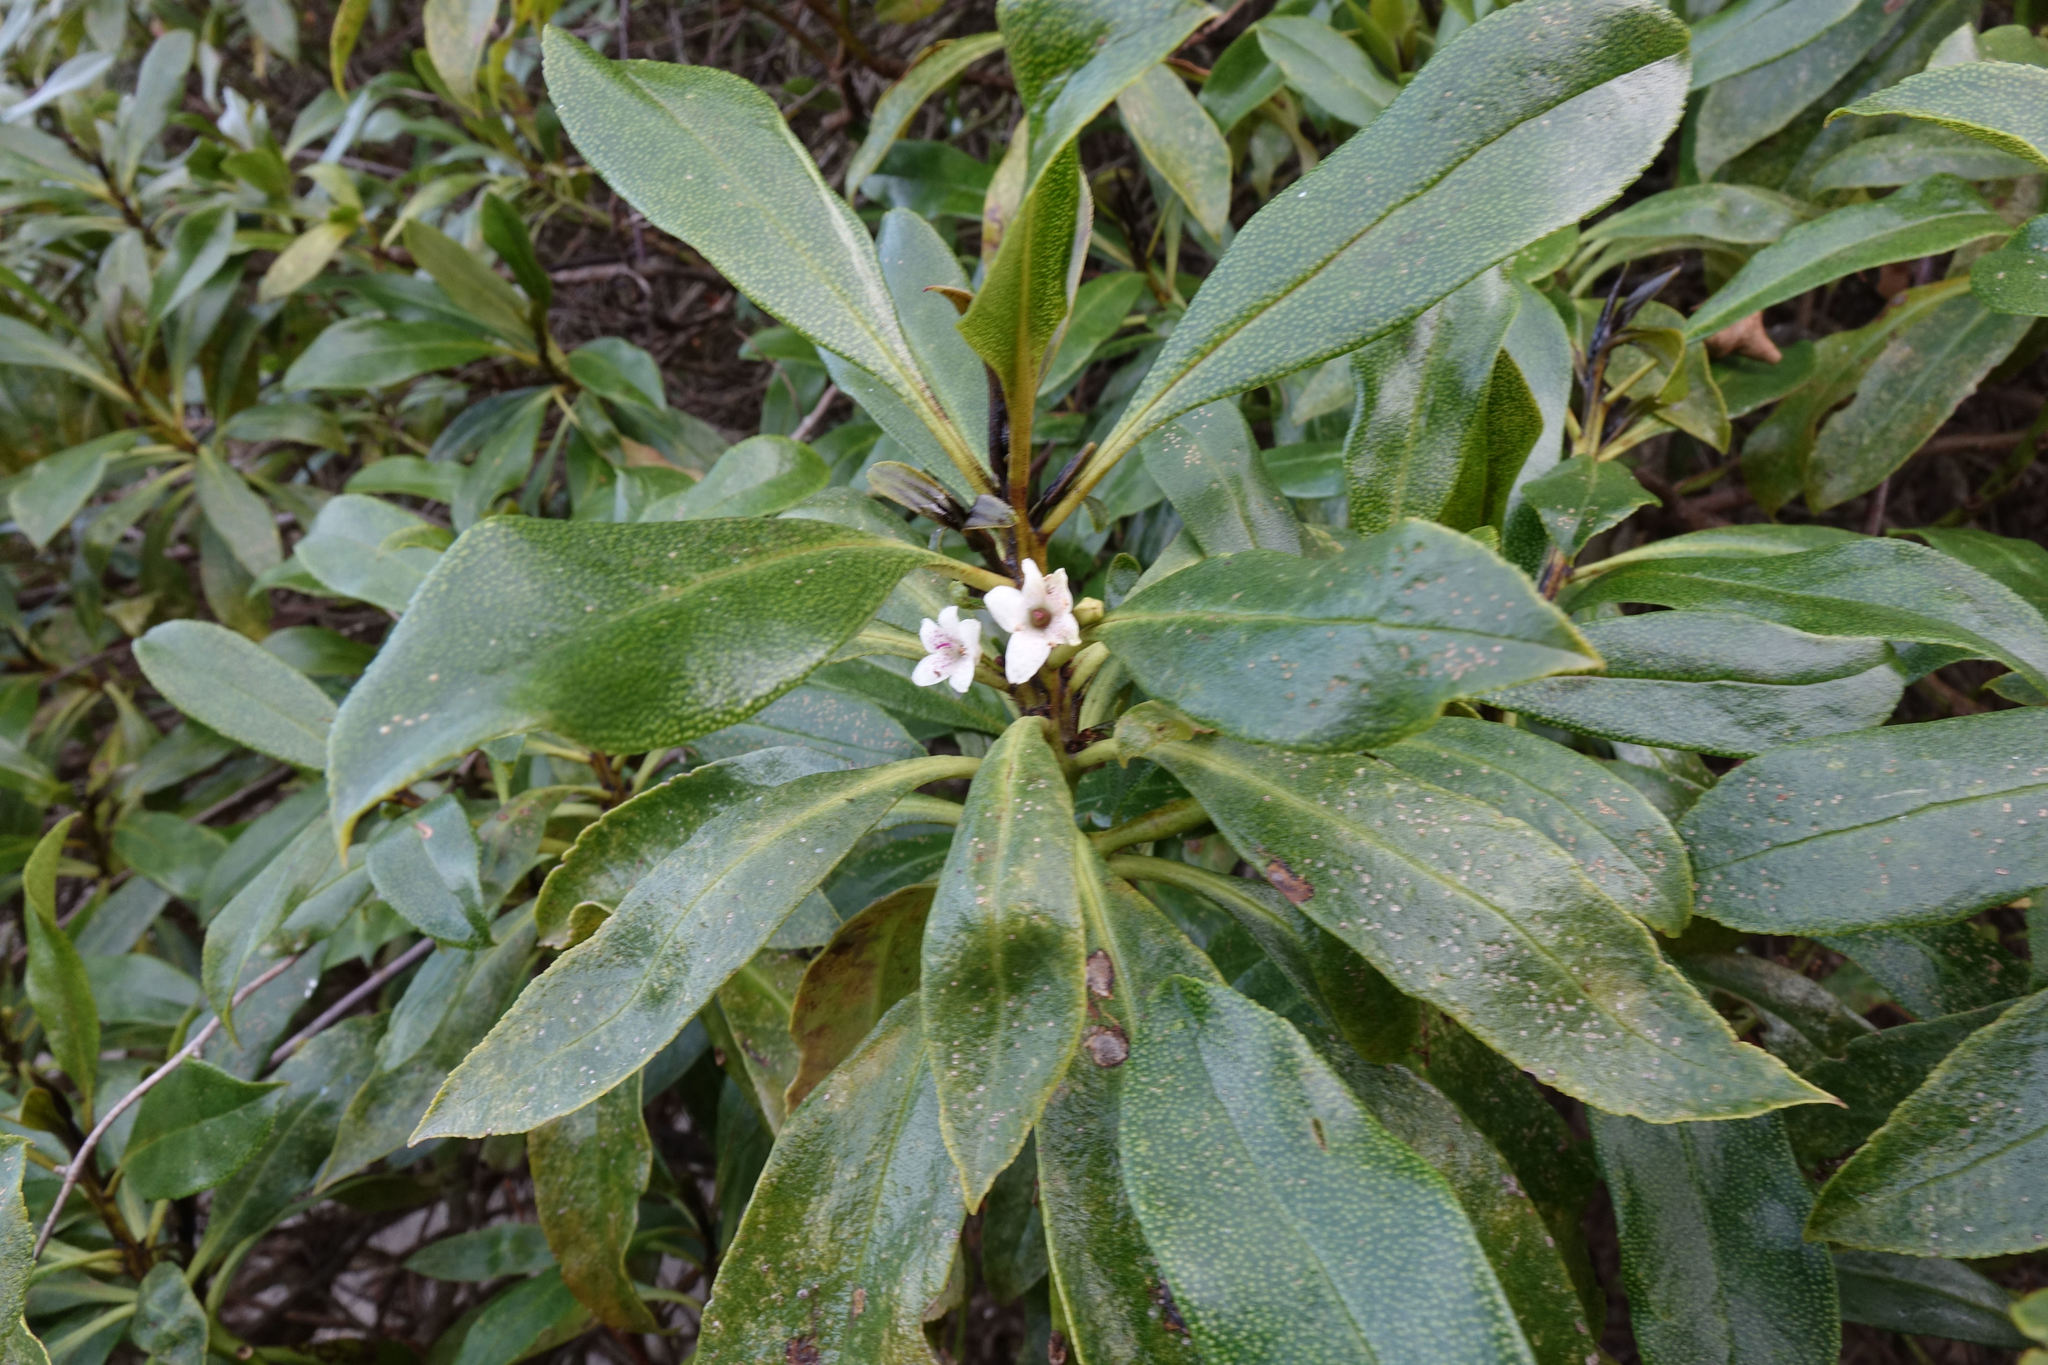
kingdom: Plantae
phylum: Tracheophyta
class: Magnoliopsida
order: Lamiales
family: Scrophulariaceae
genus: Myoporum
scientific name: Myoporum laetum
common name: Ngaio tree
